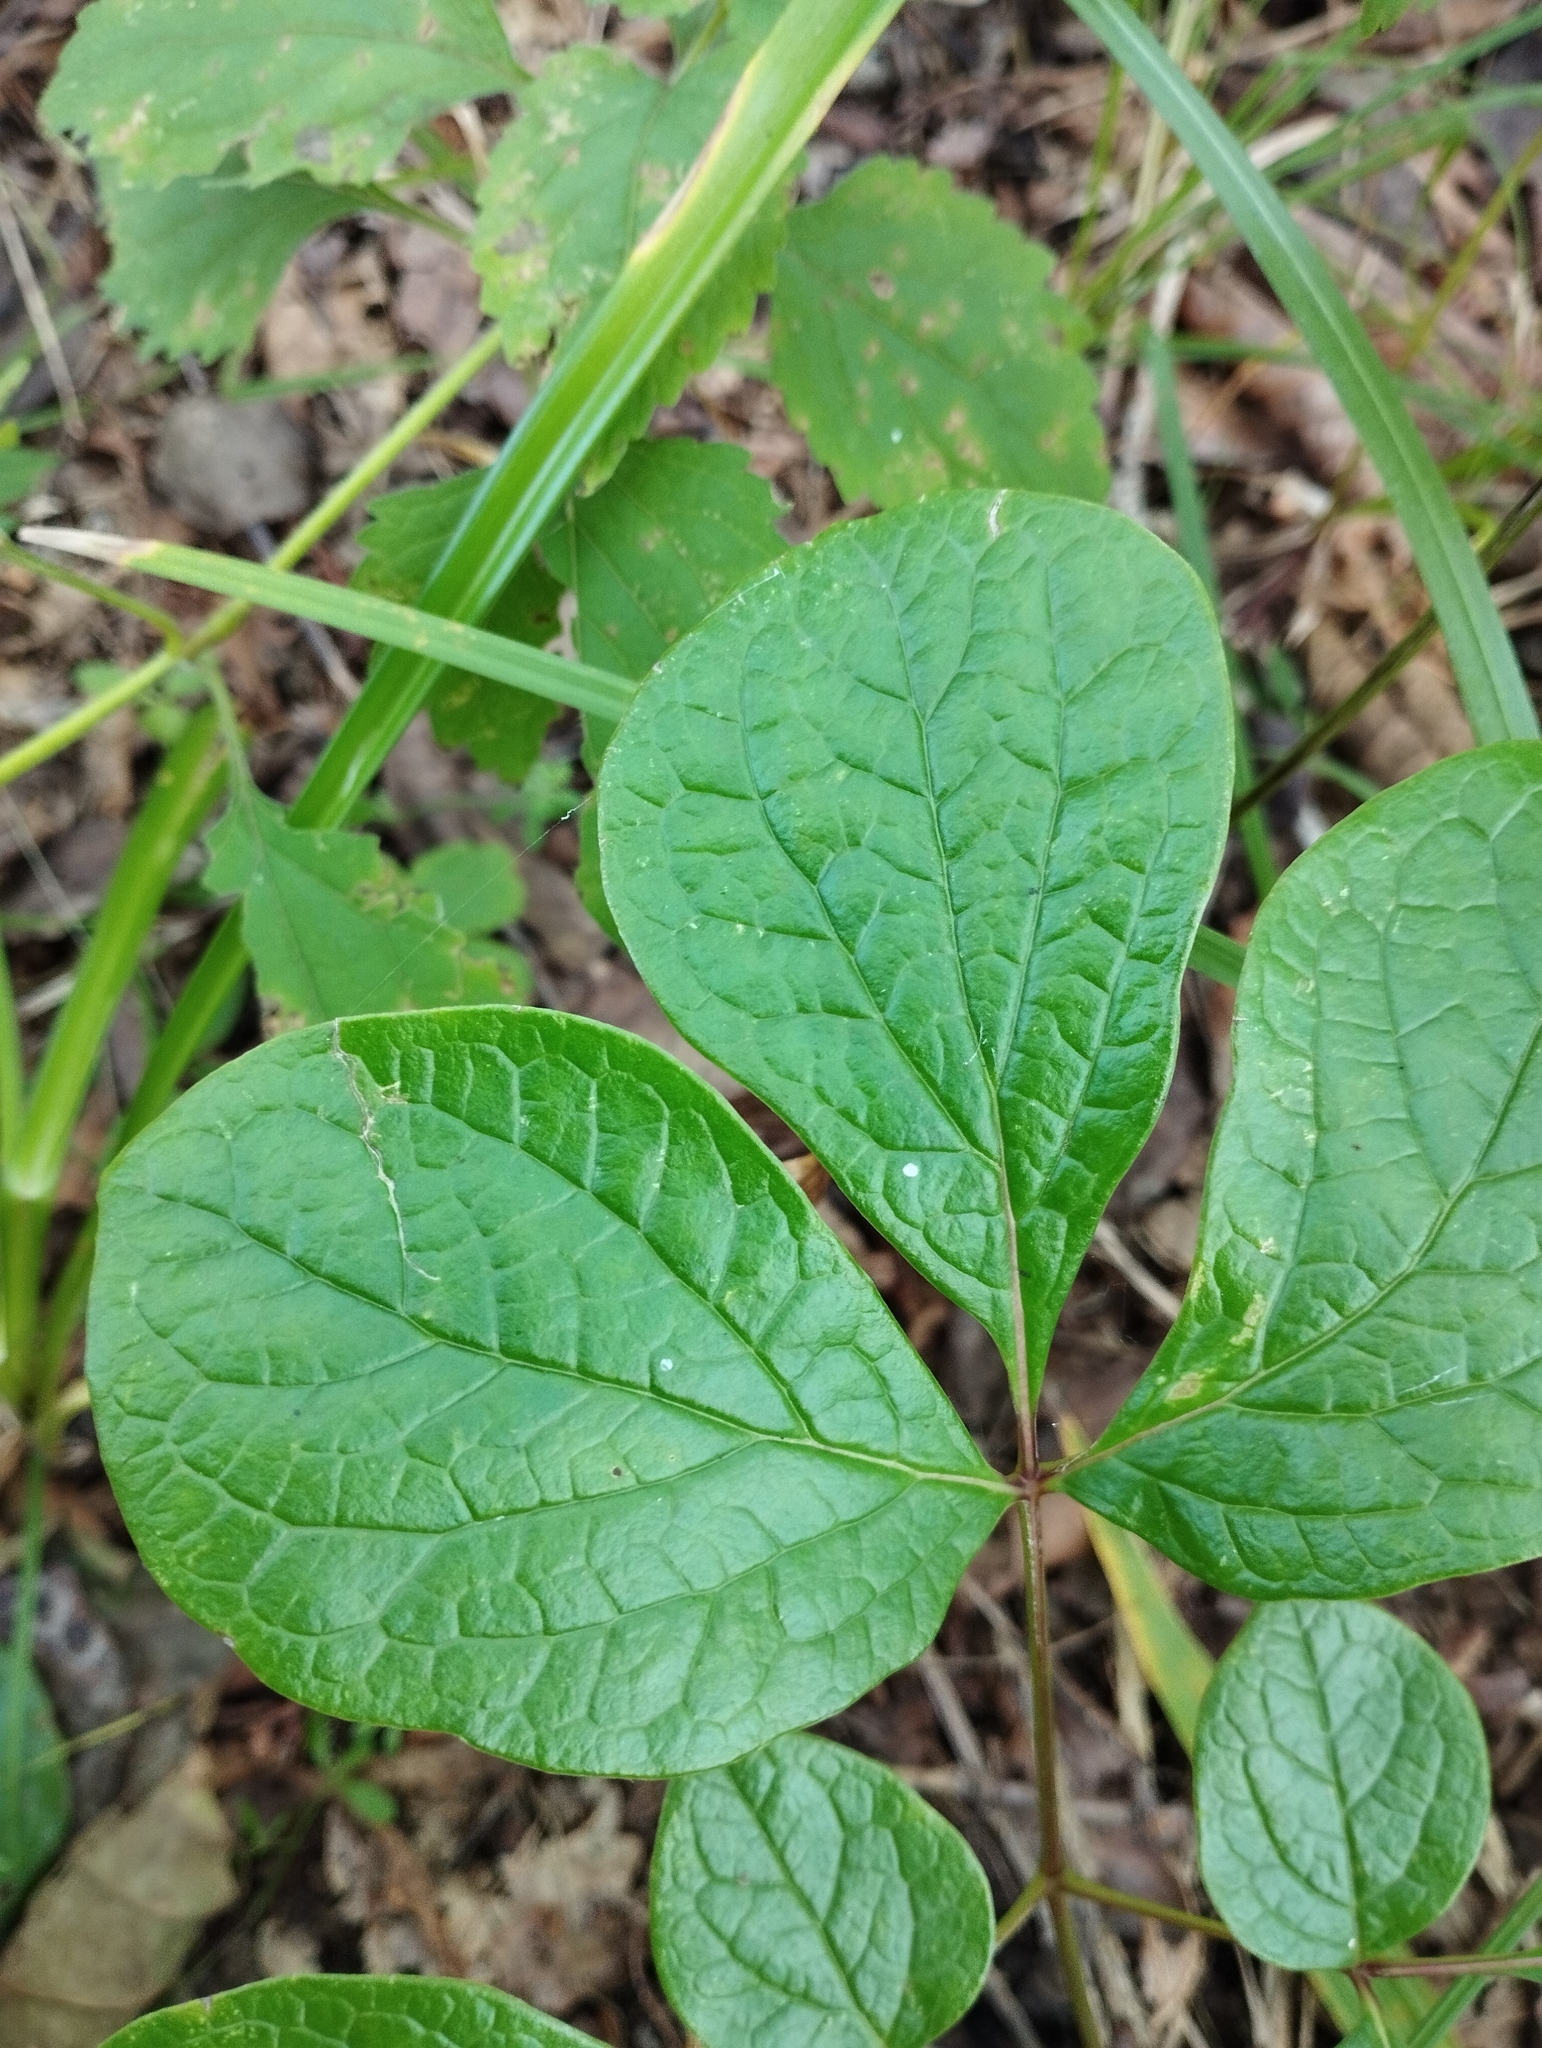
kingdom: Plantae
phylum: Tracheophyta
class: Magnoliopsida
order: Saxifragales
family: Paeoniaceae
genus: Paeonia
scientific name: Paeonia obovata
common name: Chinese peony
